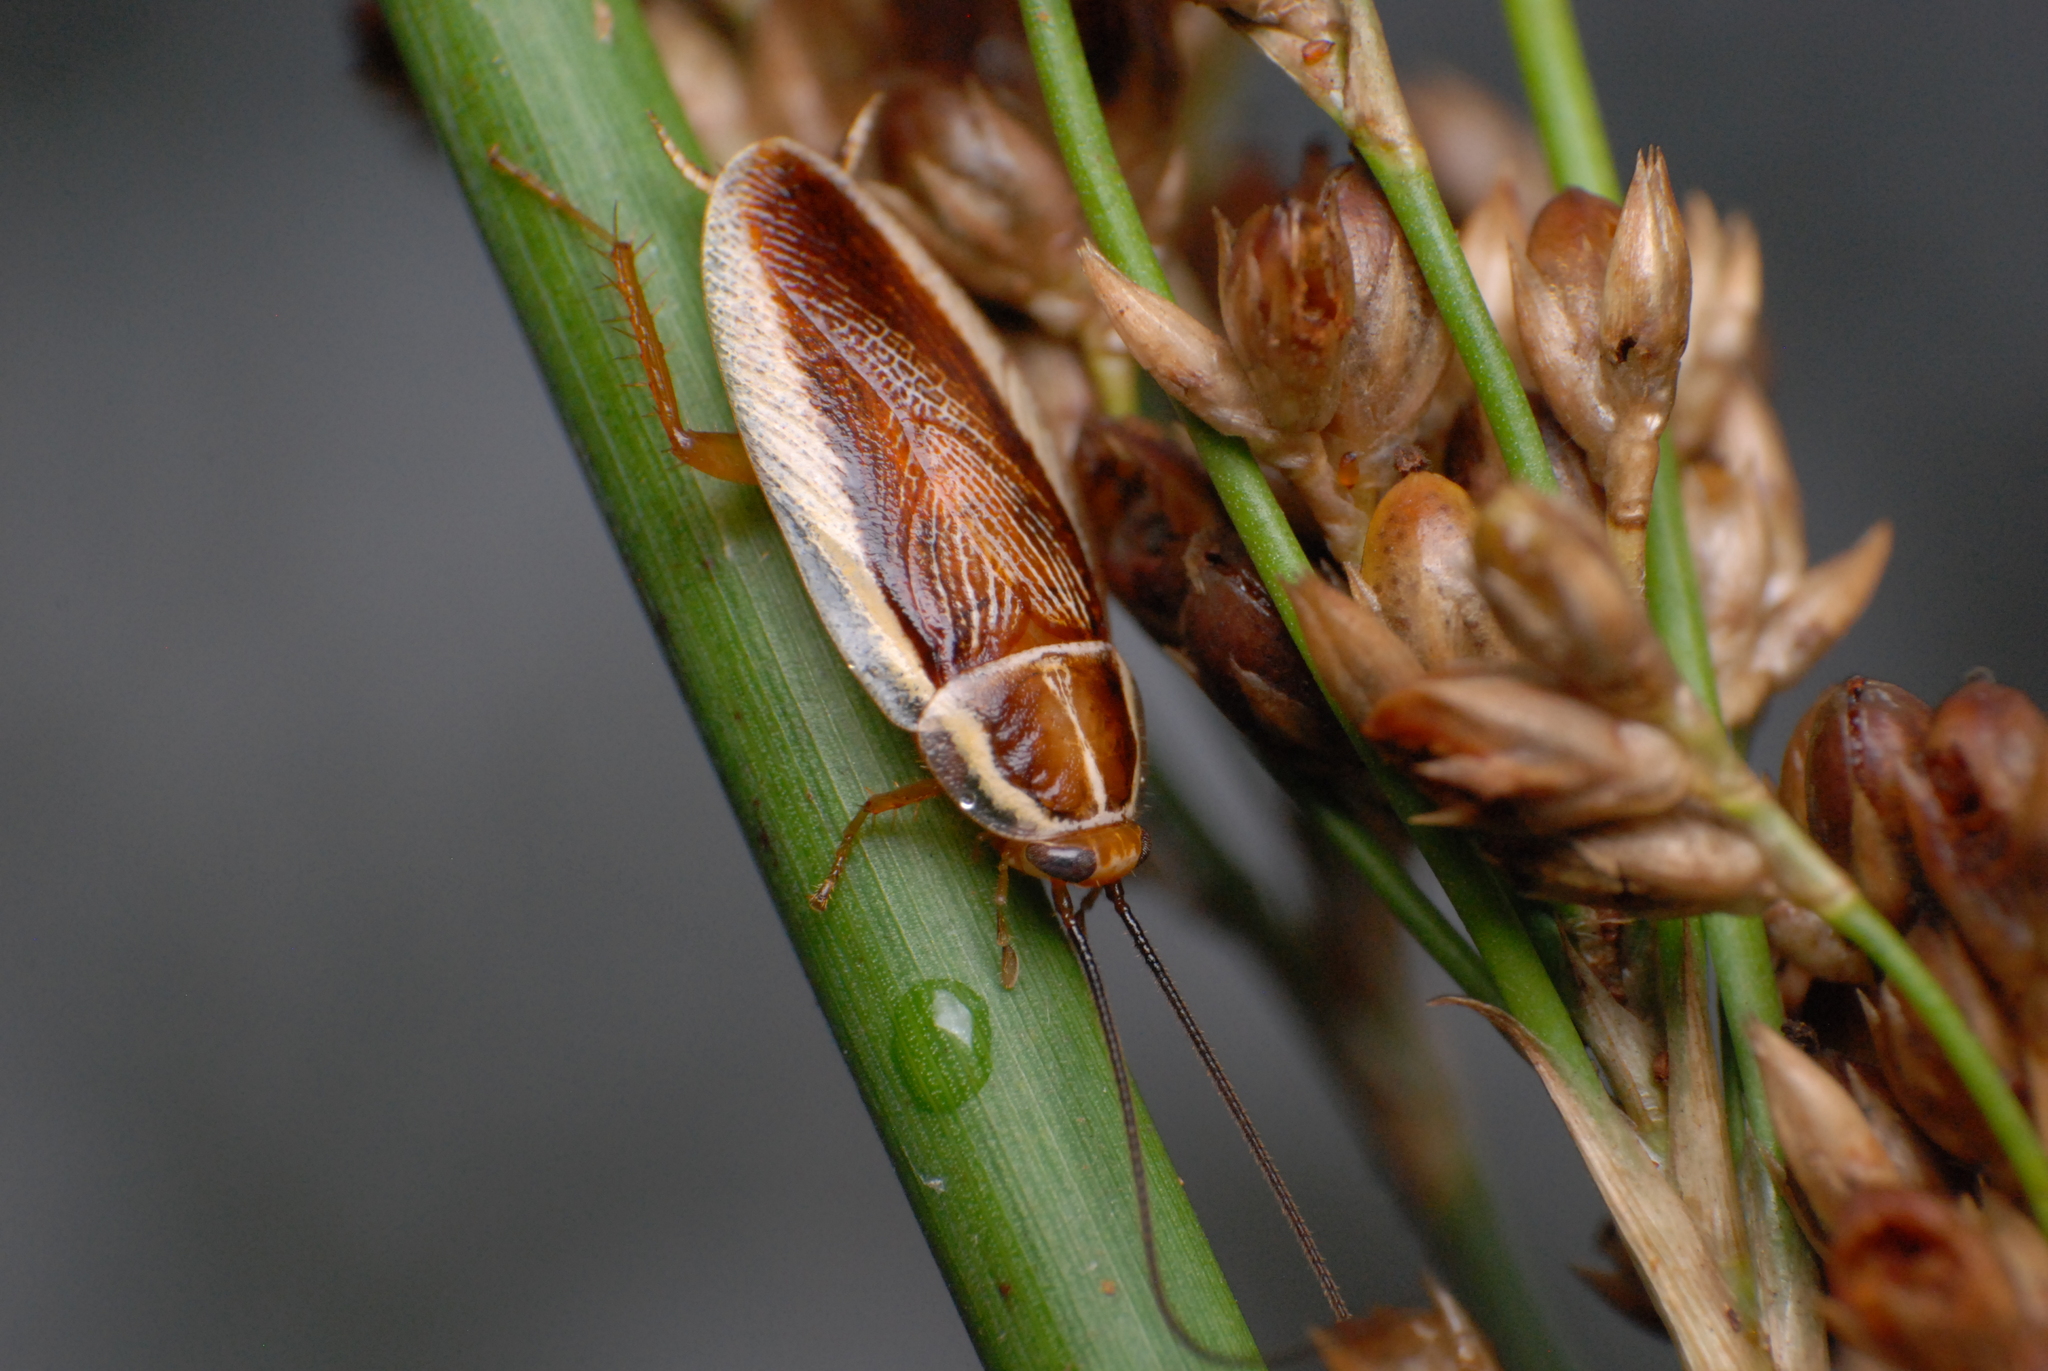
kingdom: Animalia
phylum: Arthropoda
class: Insecta
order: Blattodea
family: Ectobiidae
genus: Balta
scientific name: Balta spuria
